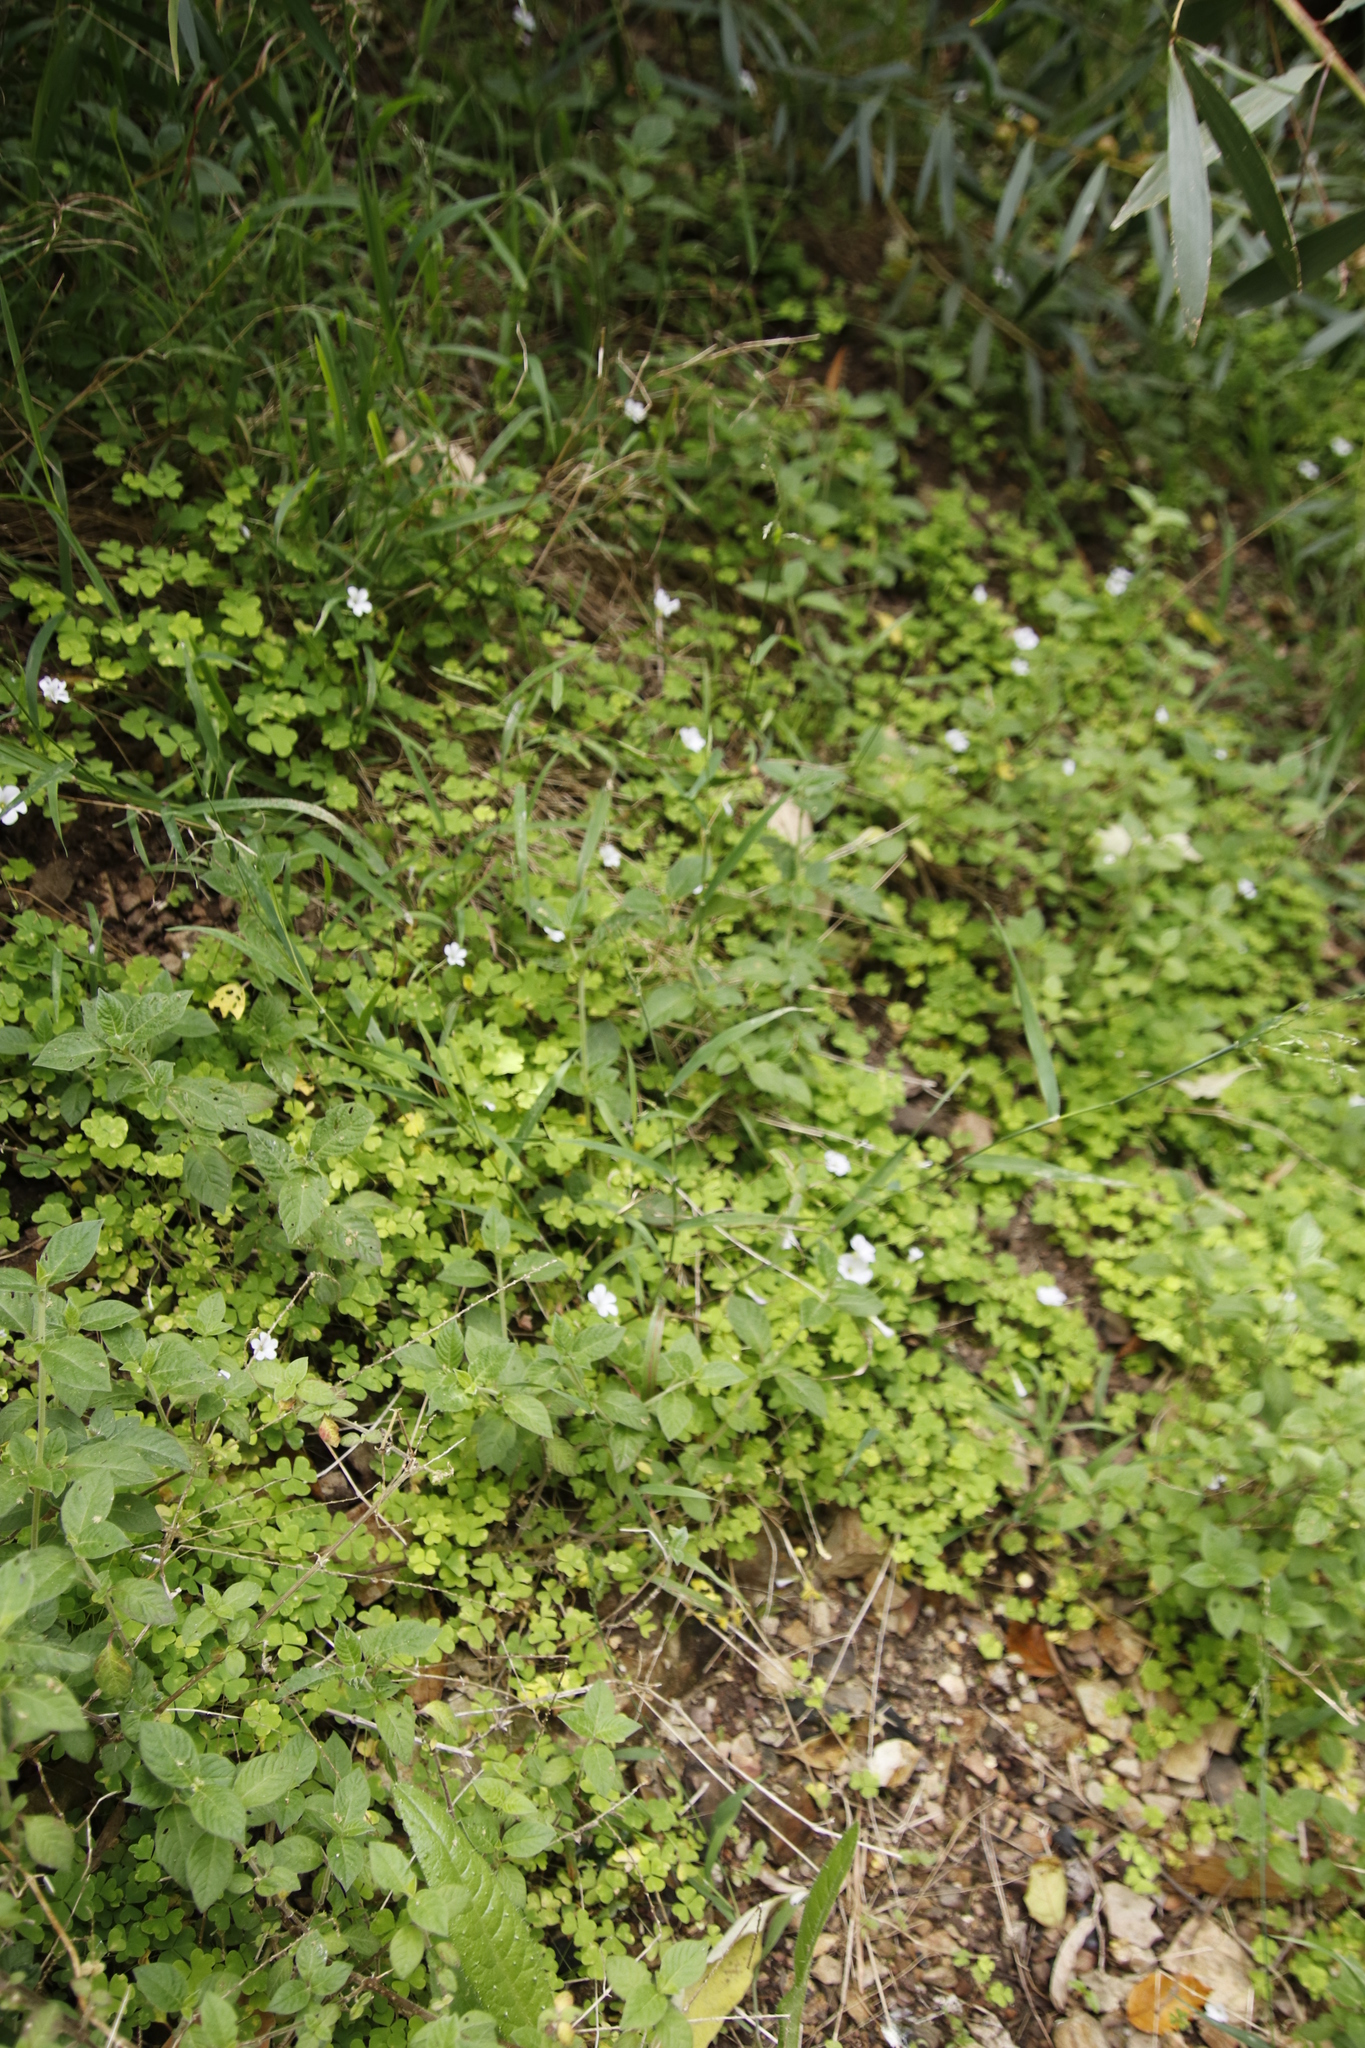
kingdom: Plantae
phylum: Tracheophyta
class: Magnoliopsida
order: Oxalidales
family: Oxalidaceae
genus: Oxalis
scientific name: Oxalis incarnata
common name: Pale pink-sorrel
